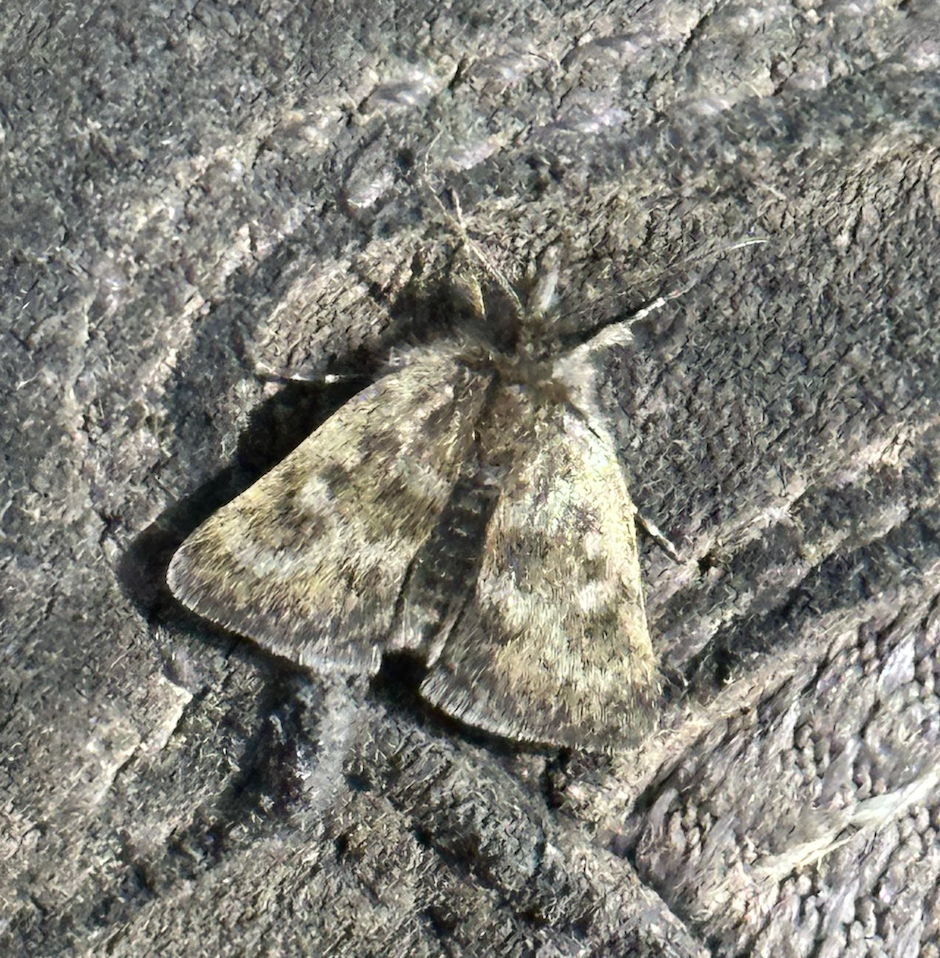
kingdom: Animalia
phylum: Arthropoda
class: Insecta
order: Lepidoptera
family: Crambidae
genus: Metaxmeste
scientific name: Metaxmeste phrygialis
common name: Black mountain pearl
